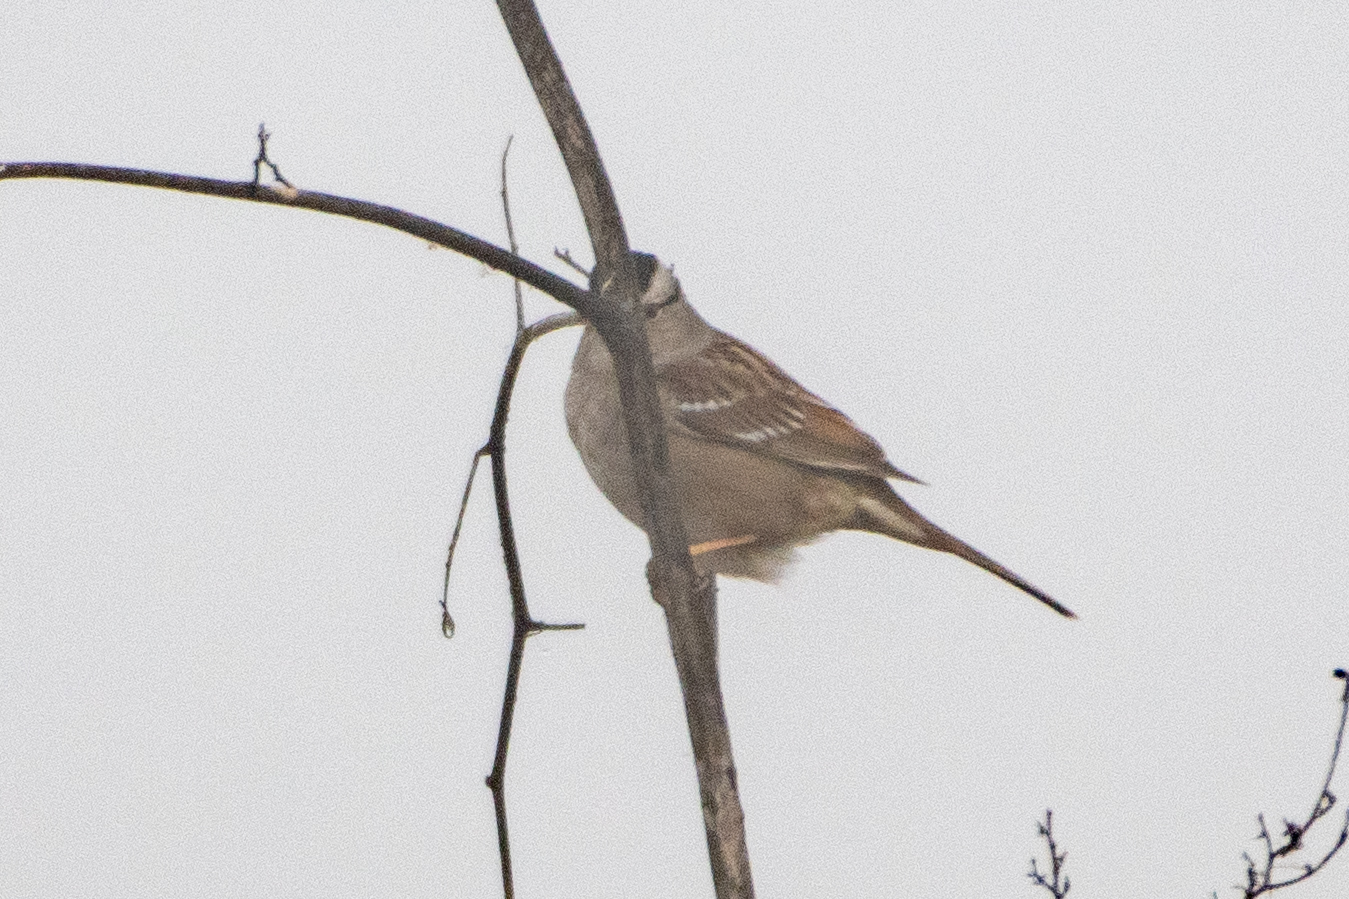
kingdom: Animalia
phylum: Chordata
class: Aves
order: Passeriformes
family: Passerellidae
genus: Zonotrichia
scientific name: Zonotrichia leucophrys
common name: White-crowned sparrow
